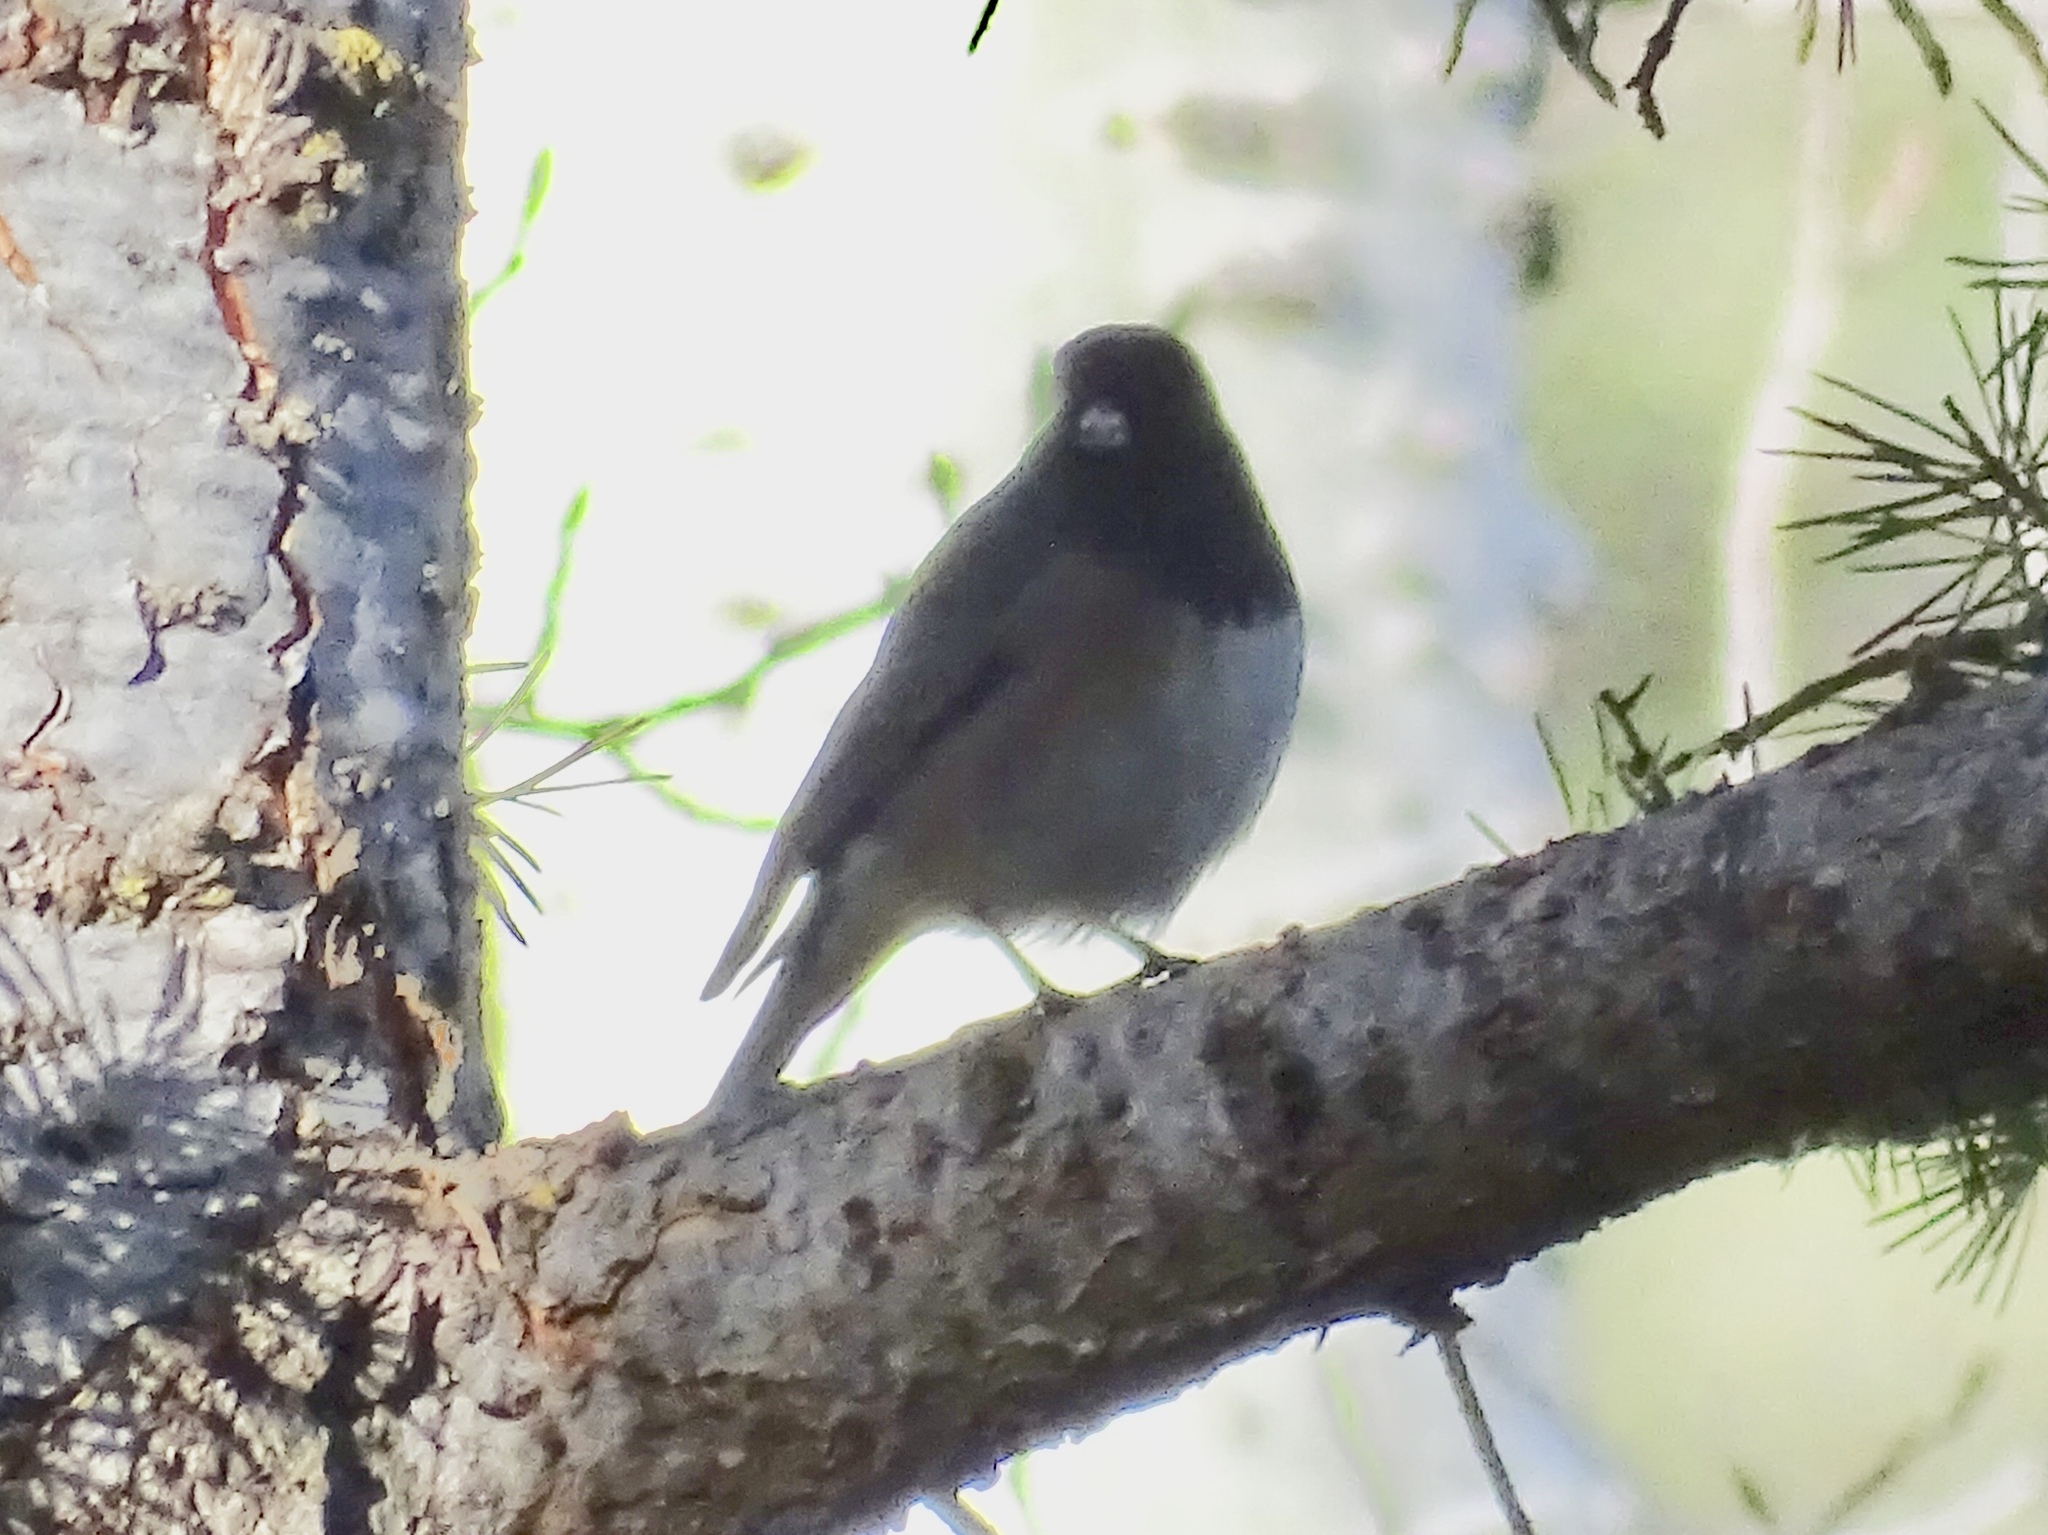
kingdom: Animalia
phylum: Chordata
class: Aves
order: Passeriformes
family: Passerellidae
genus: Junco
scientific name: Junco hyemalis
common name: Dark-eyed junco
